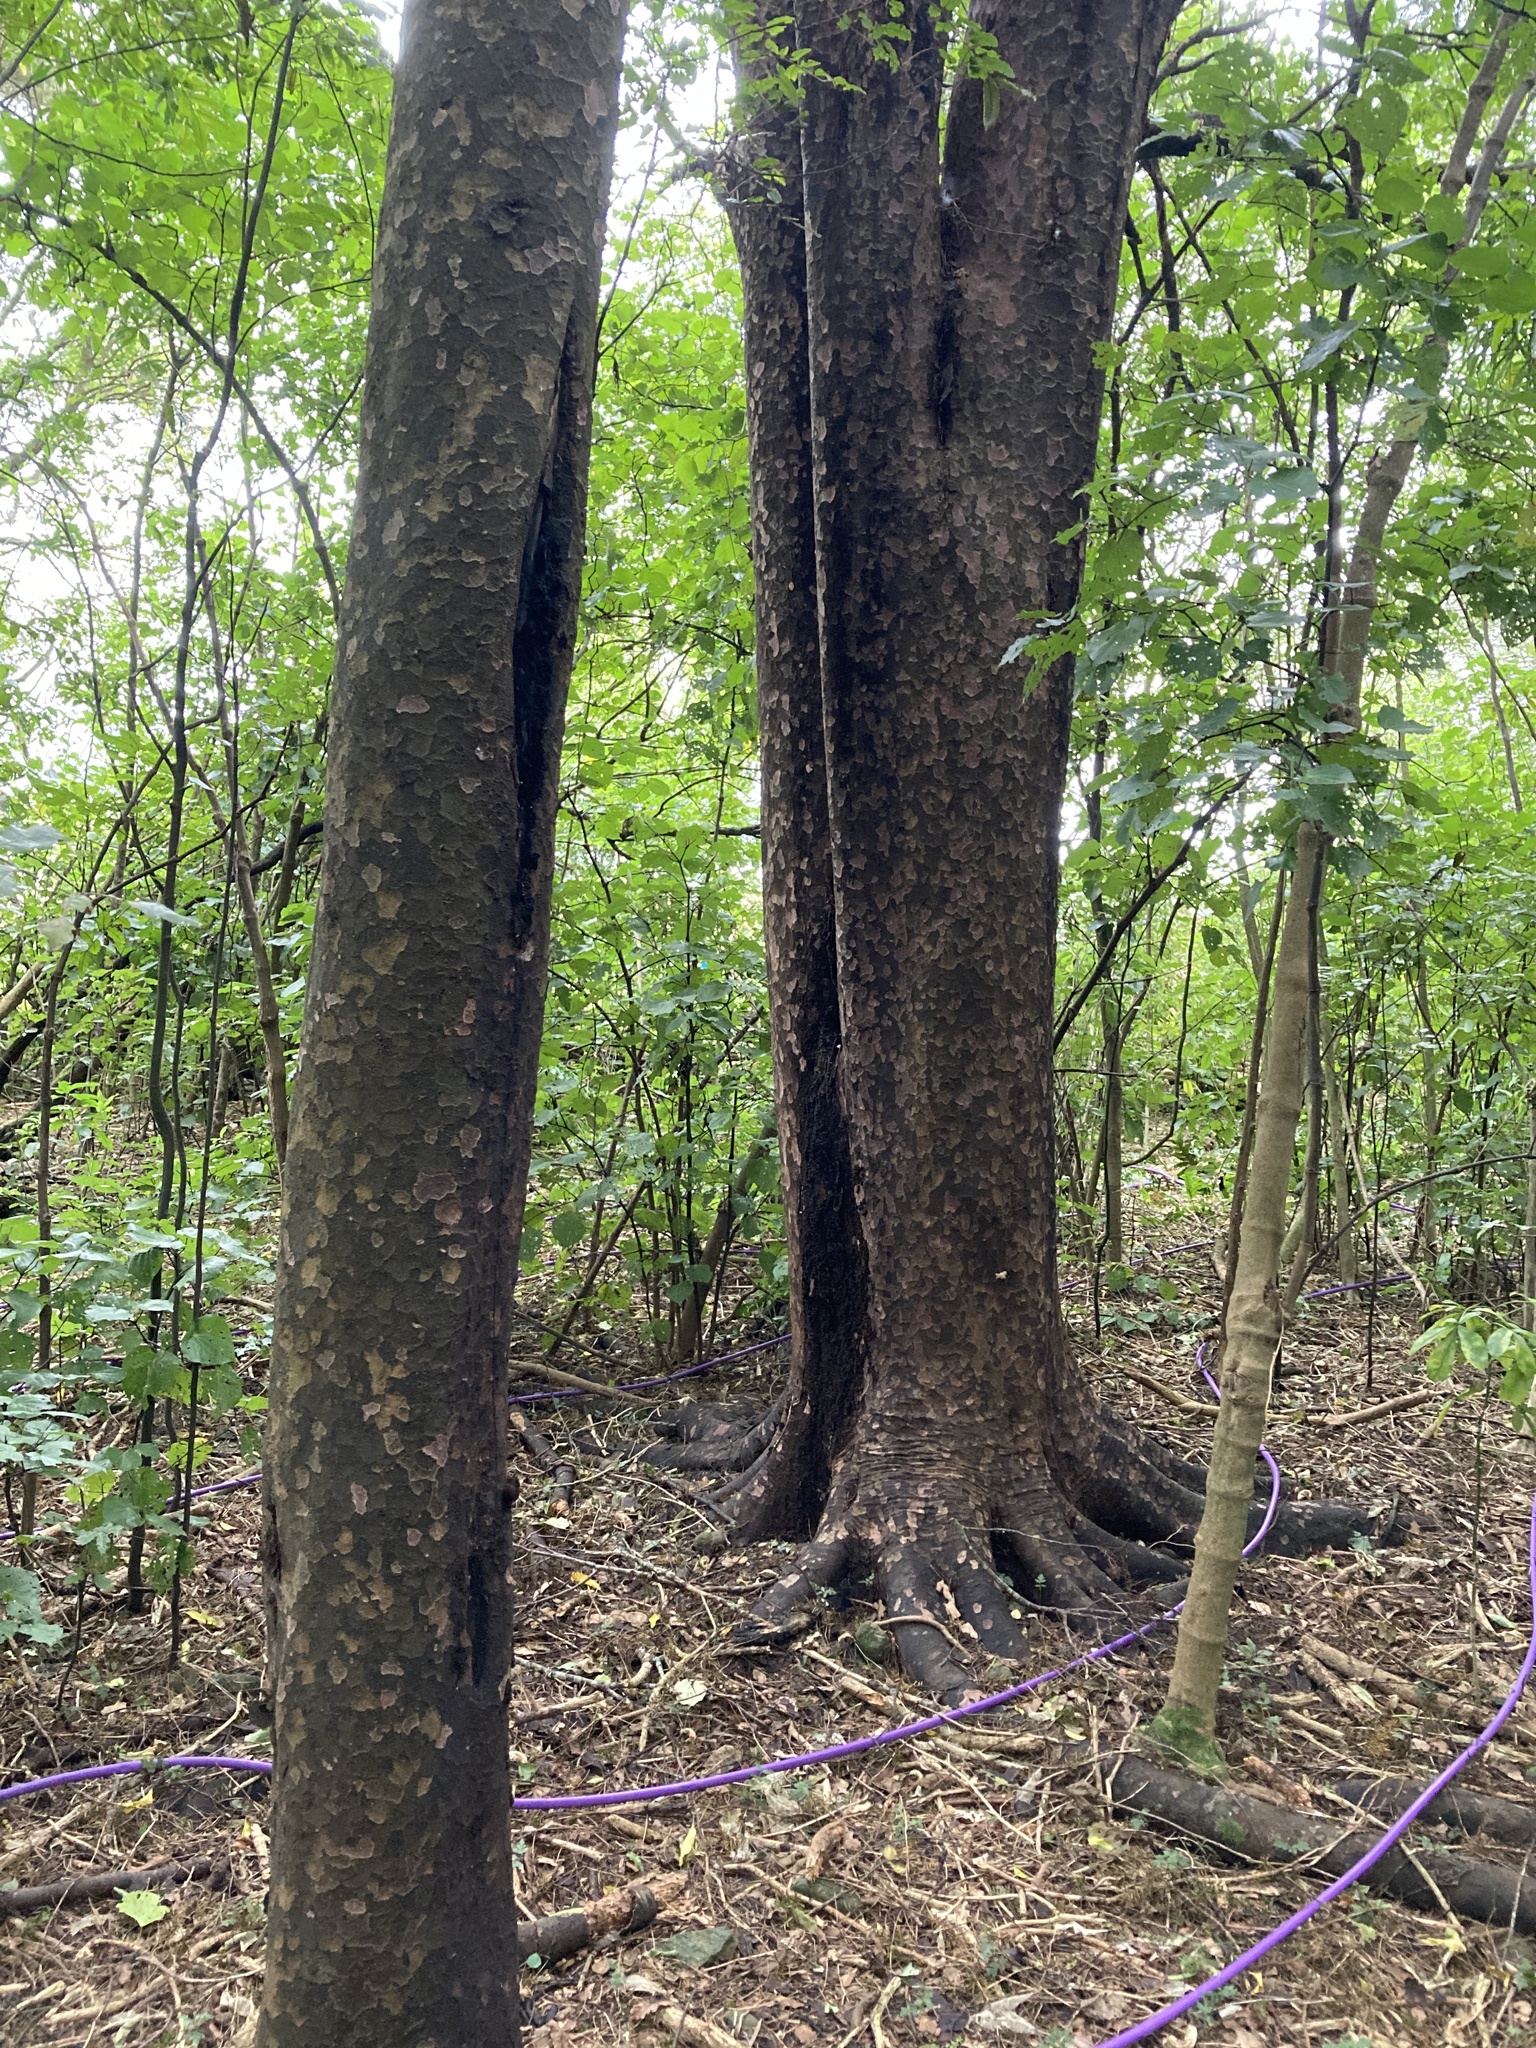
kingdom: Plantae
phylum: Tracheophyta
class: Pinopsida
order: Pinales
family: Podocarpaceae
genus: Prumnopitys
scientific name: Prumnopitys taxifolia
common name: Matai
